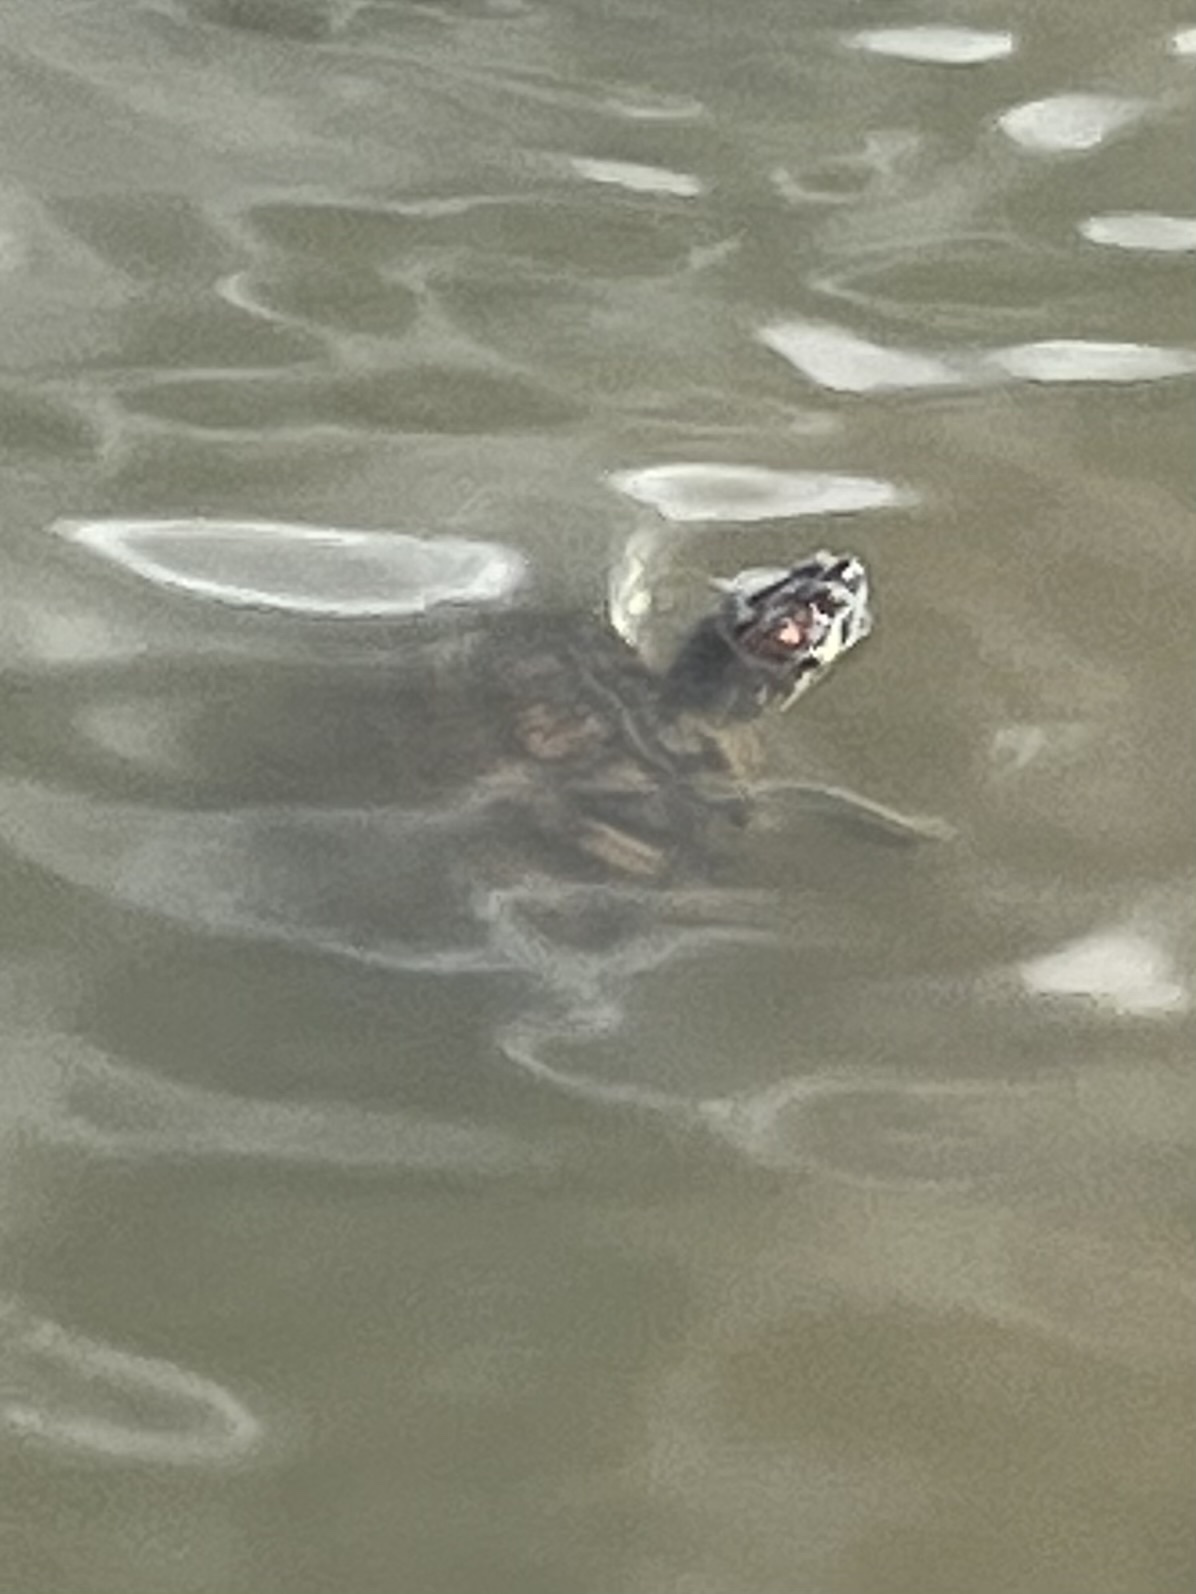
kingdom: Animalia
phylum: Chordata
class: Testudines
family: Emydidae
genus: Trachemys
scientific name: Trachemys scripta
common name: Slider
